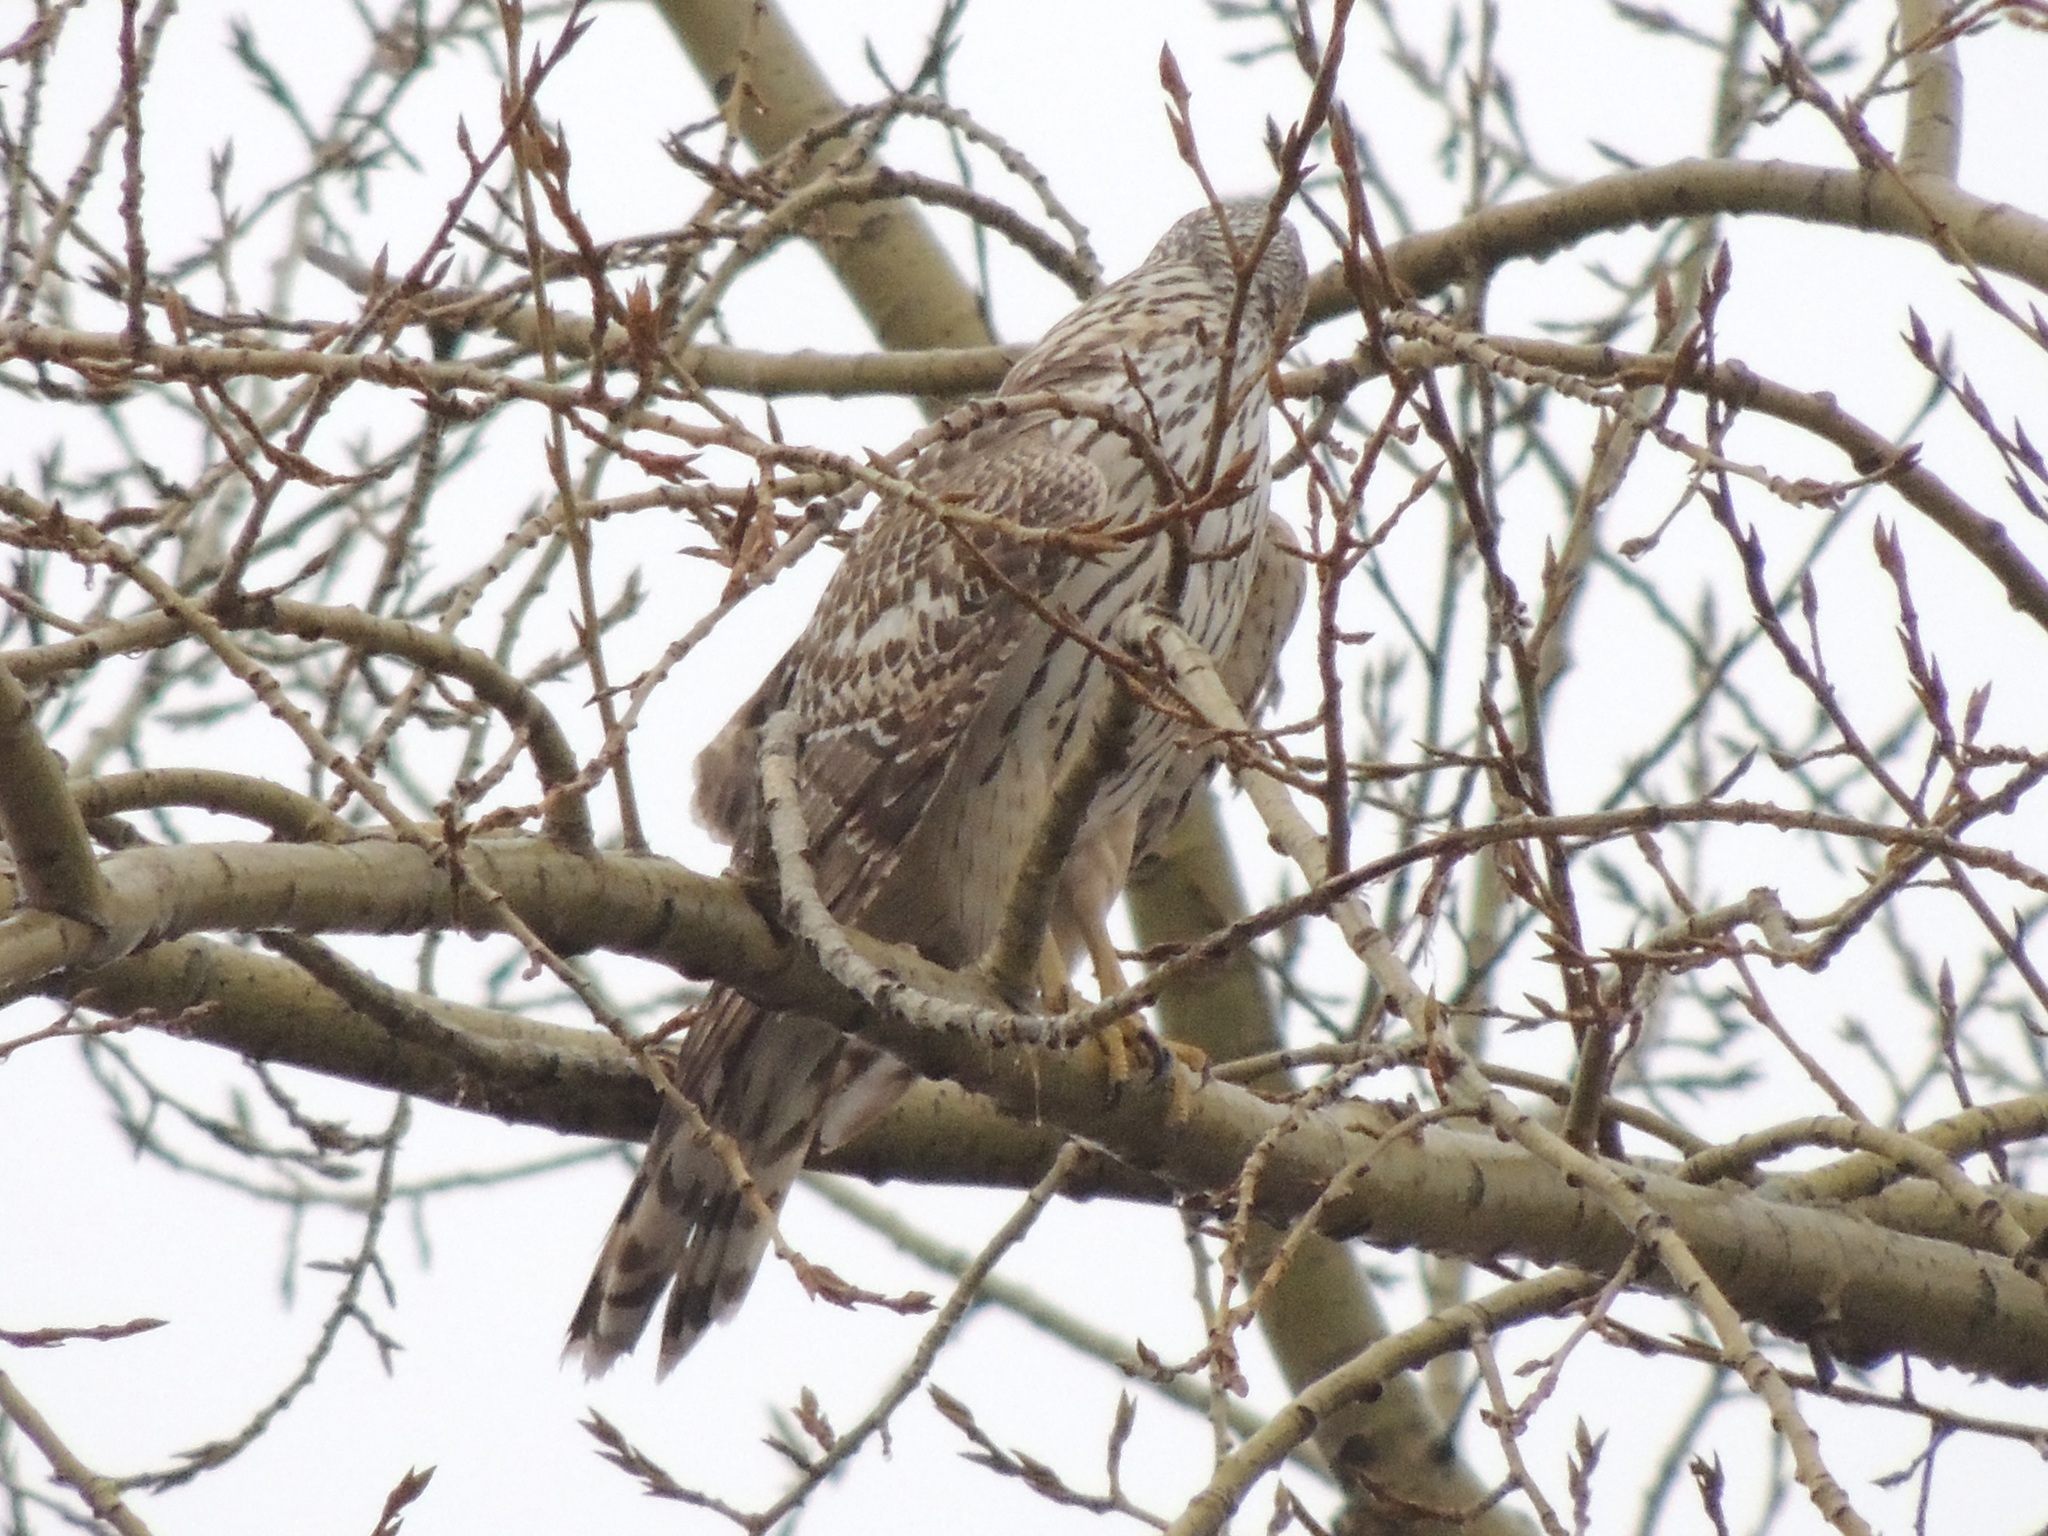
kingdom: Animalia
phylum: Chordata
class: Aves
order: Accipitriformes
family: Accipitridae
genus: Accipiter
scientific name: Accipiter gentilis
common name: Northern goshawk
